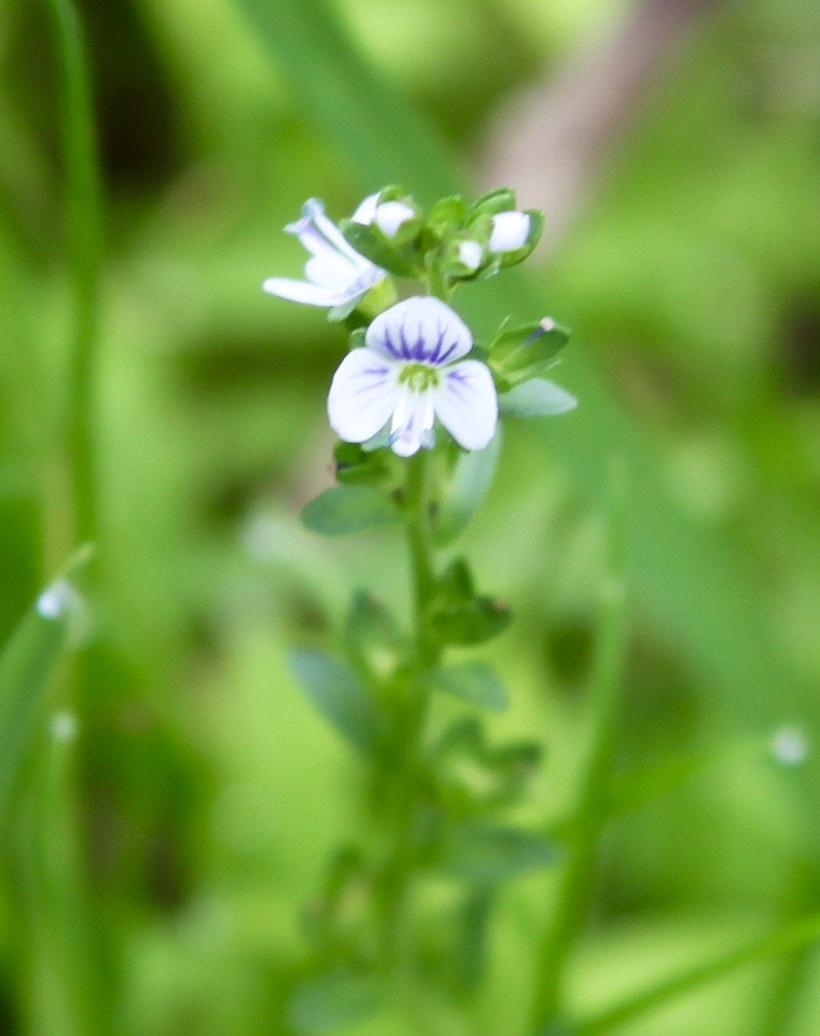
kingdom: Plantae
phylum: Tracheophyta
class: Magnoliopsida
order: Lamiales
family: Plantaginaceae
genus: Veronica
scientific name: Veronica serpyllifolia
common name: Thyme-leaved speedwell
